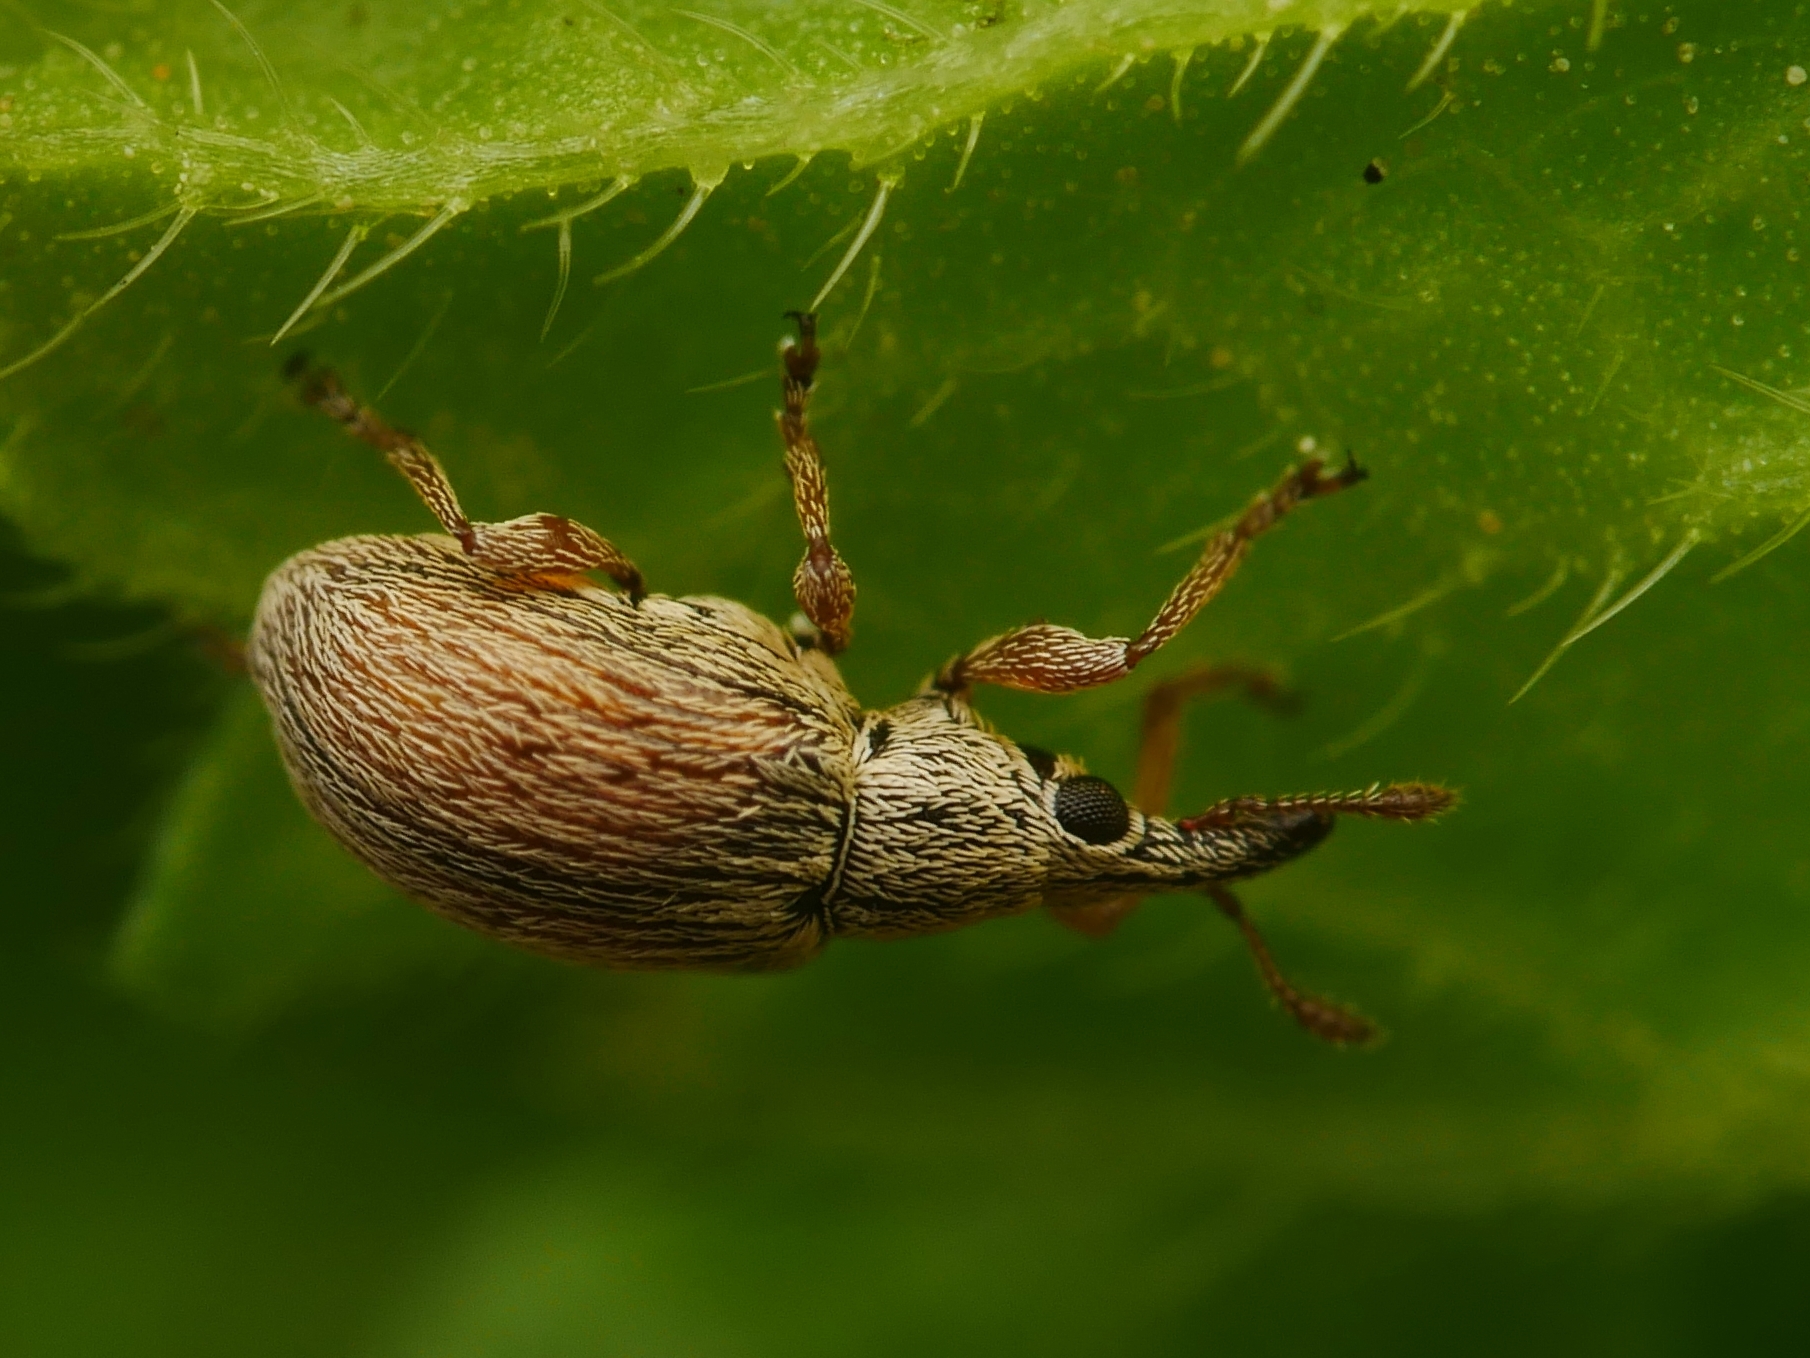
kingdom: Animalia
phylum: Arthropoda
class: Insecta
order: Coleoptera
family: Apionidae
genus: Malvapion
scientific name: Malvapion malvae
